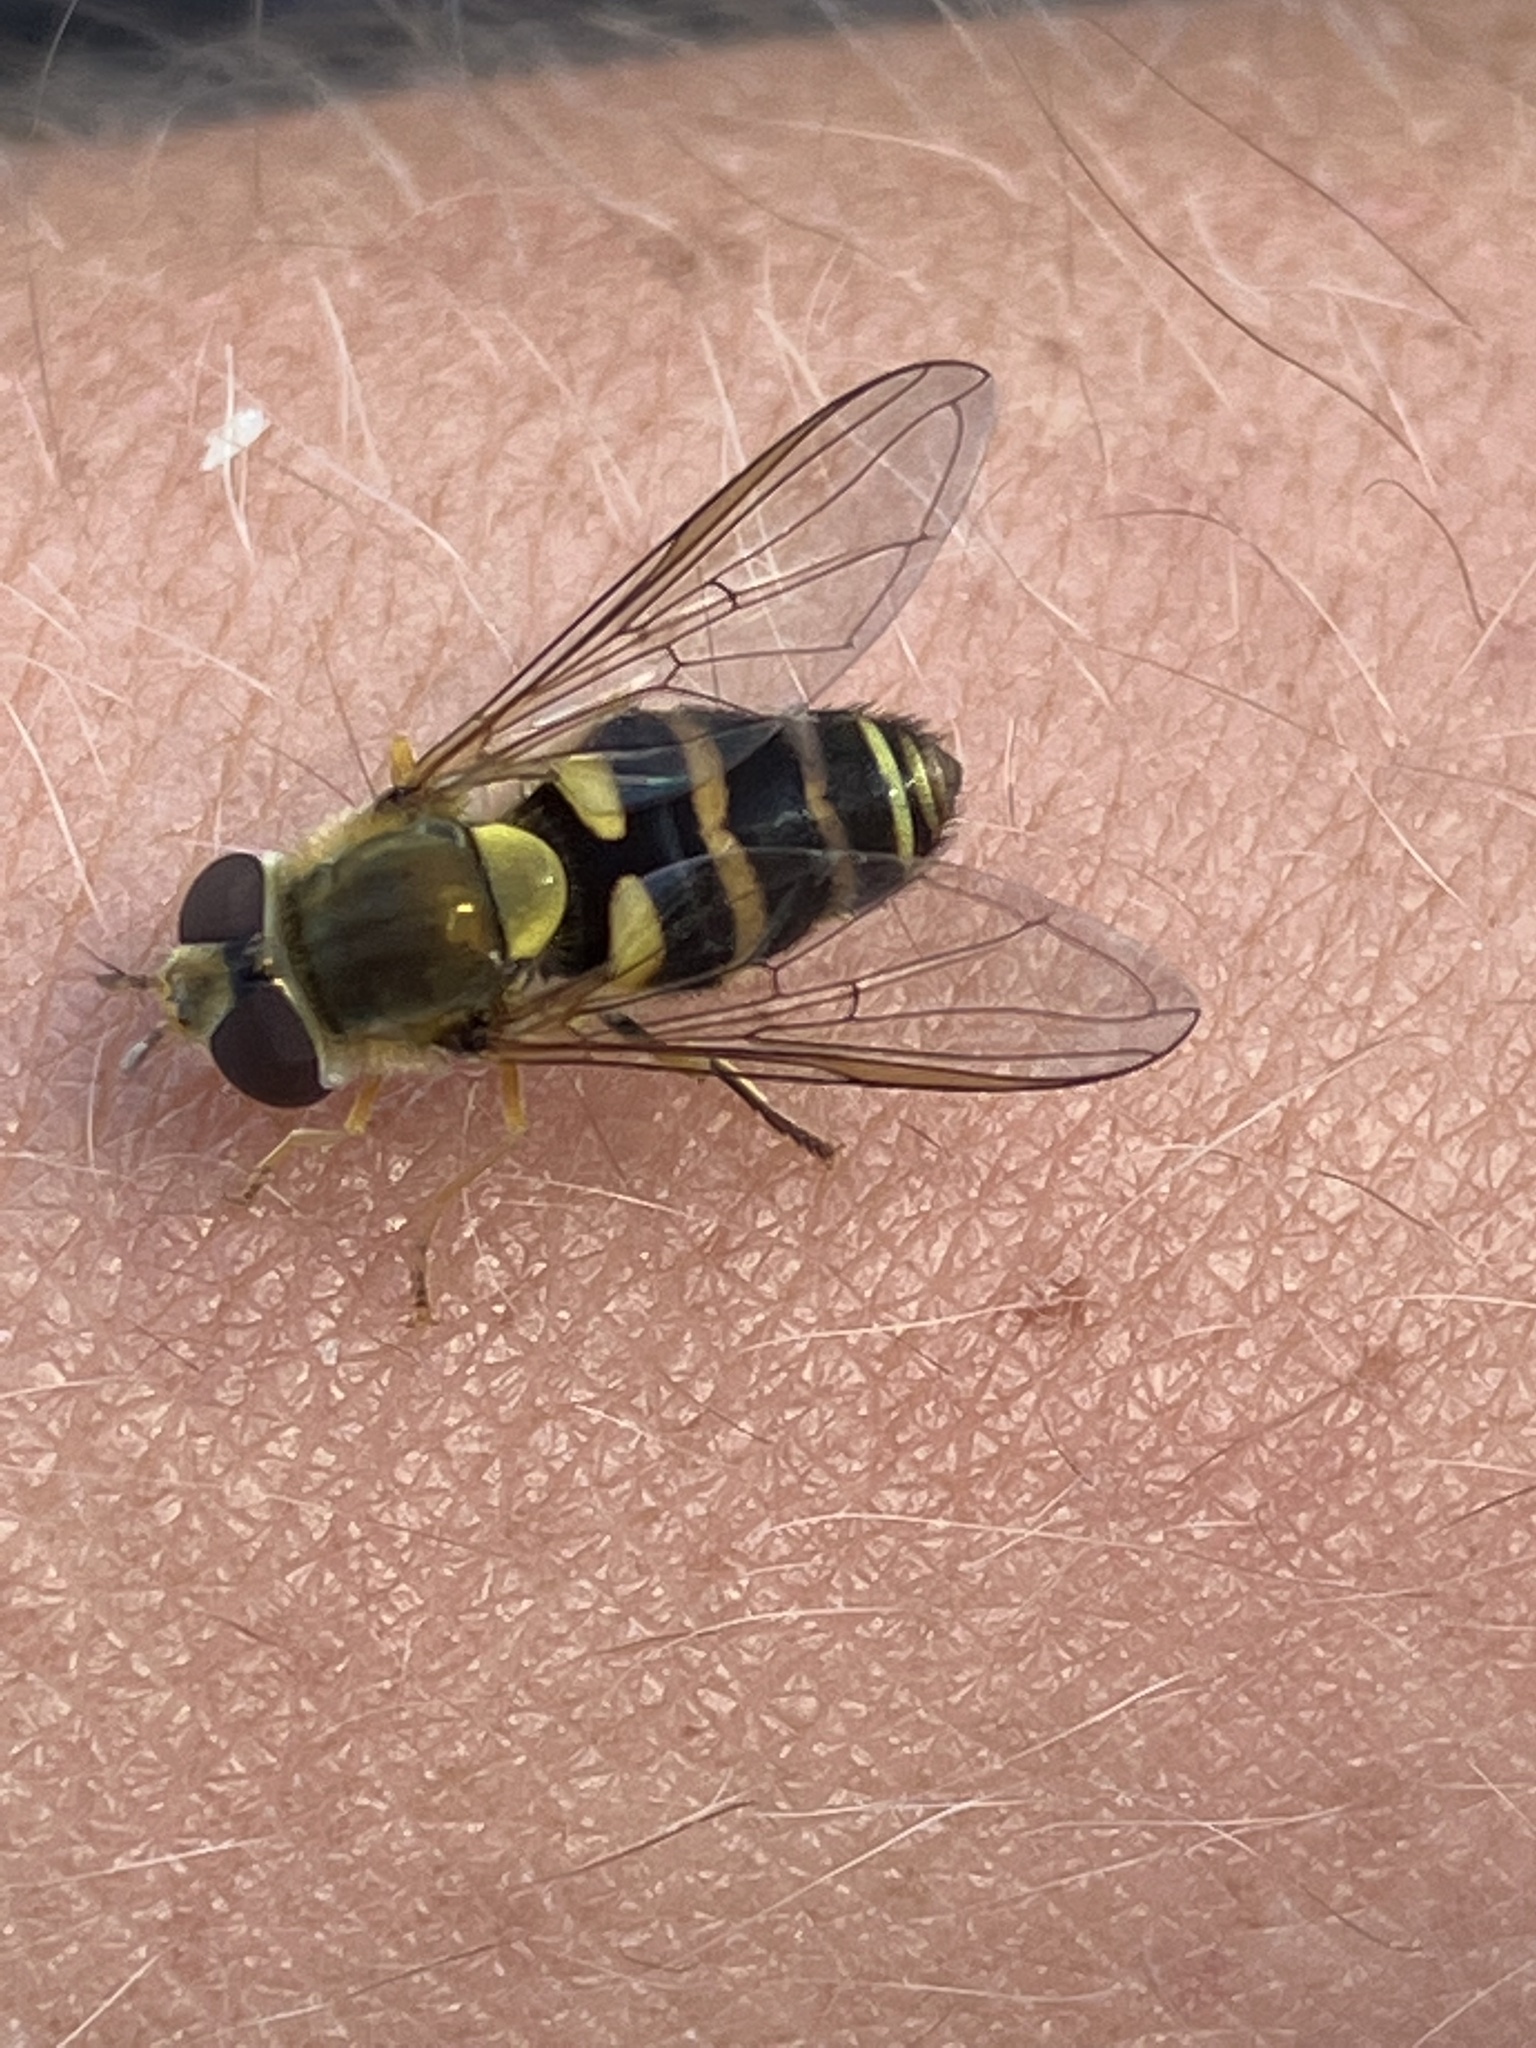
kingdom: Animalia
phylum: Arthropoda
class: Insecta
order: Diptera
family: Syrphidae
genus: Syrphus
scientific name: Syrphus
